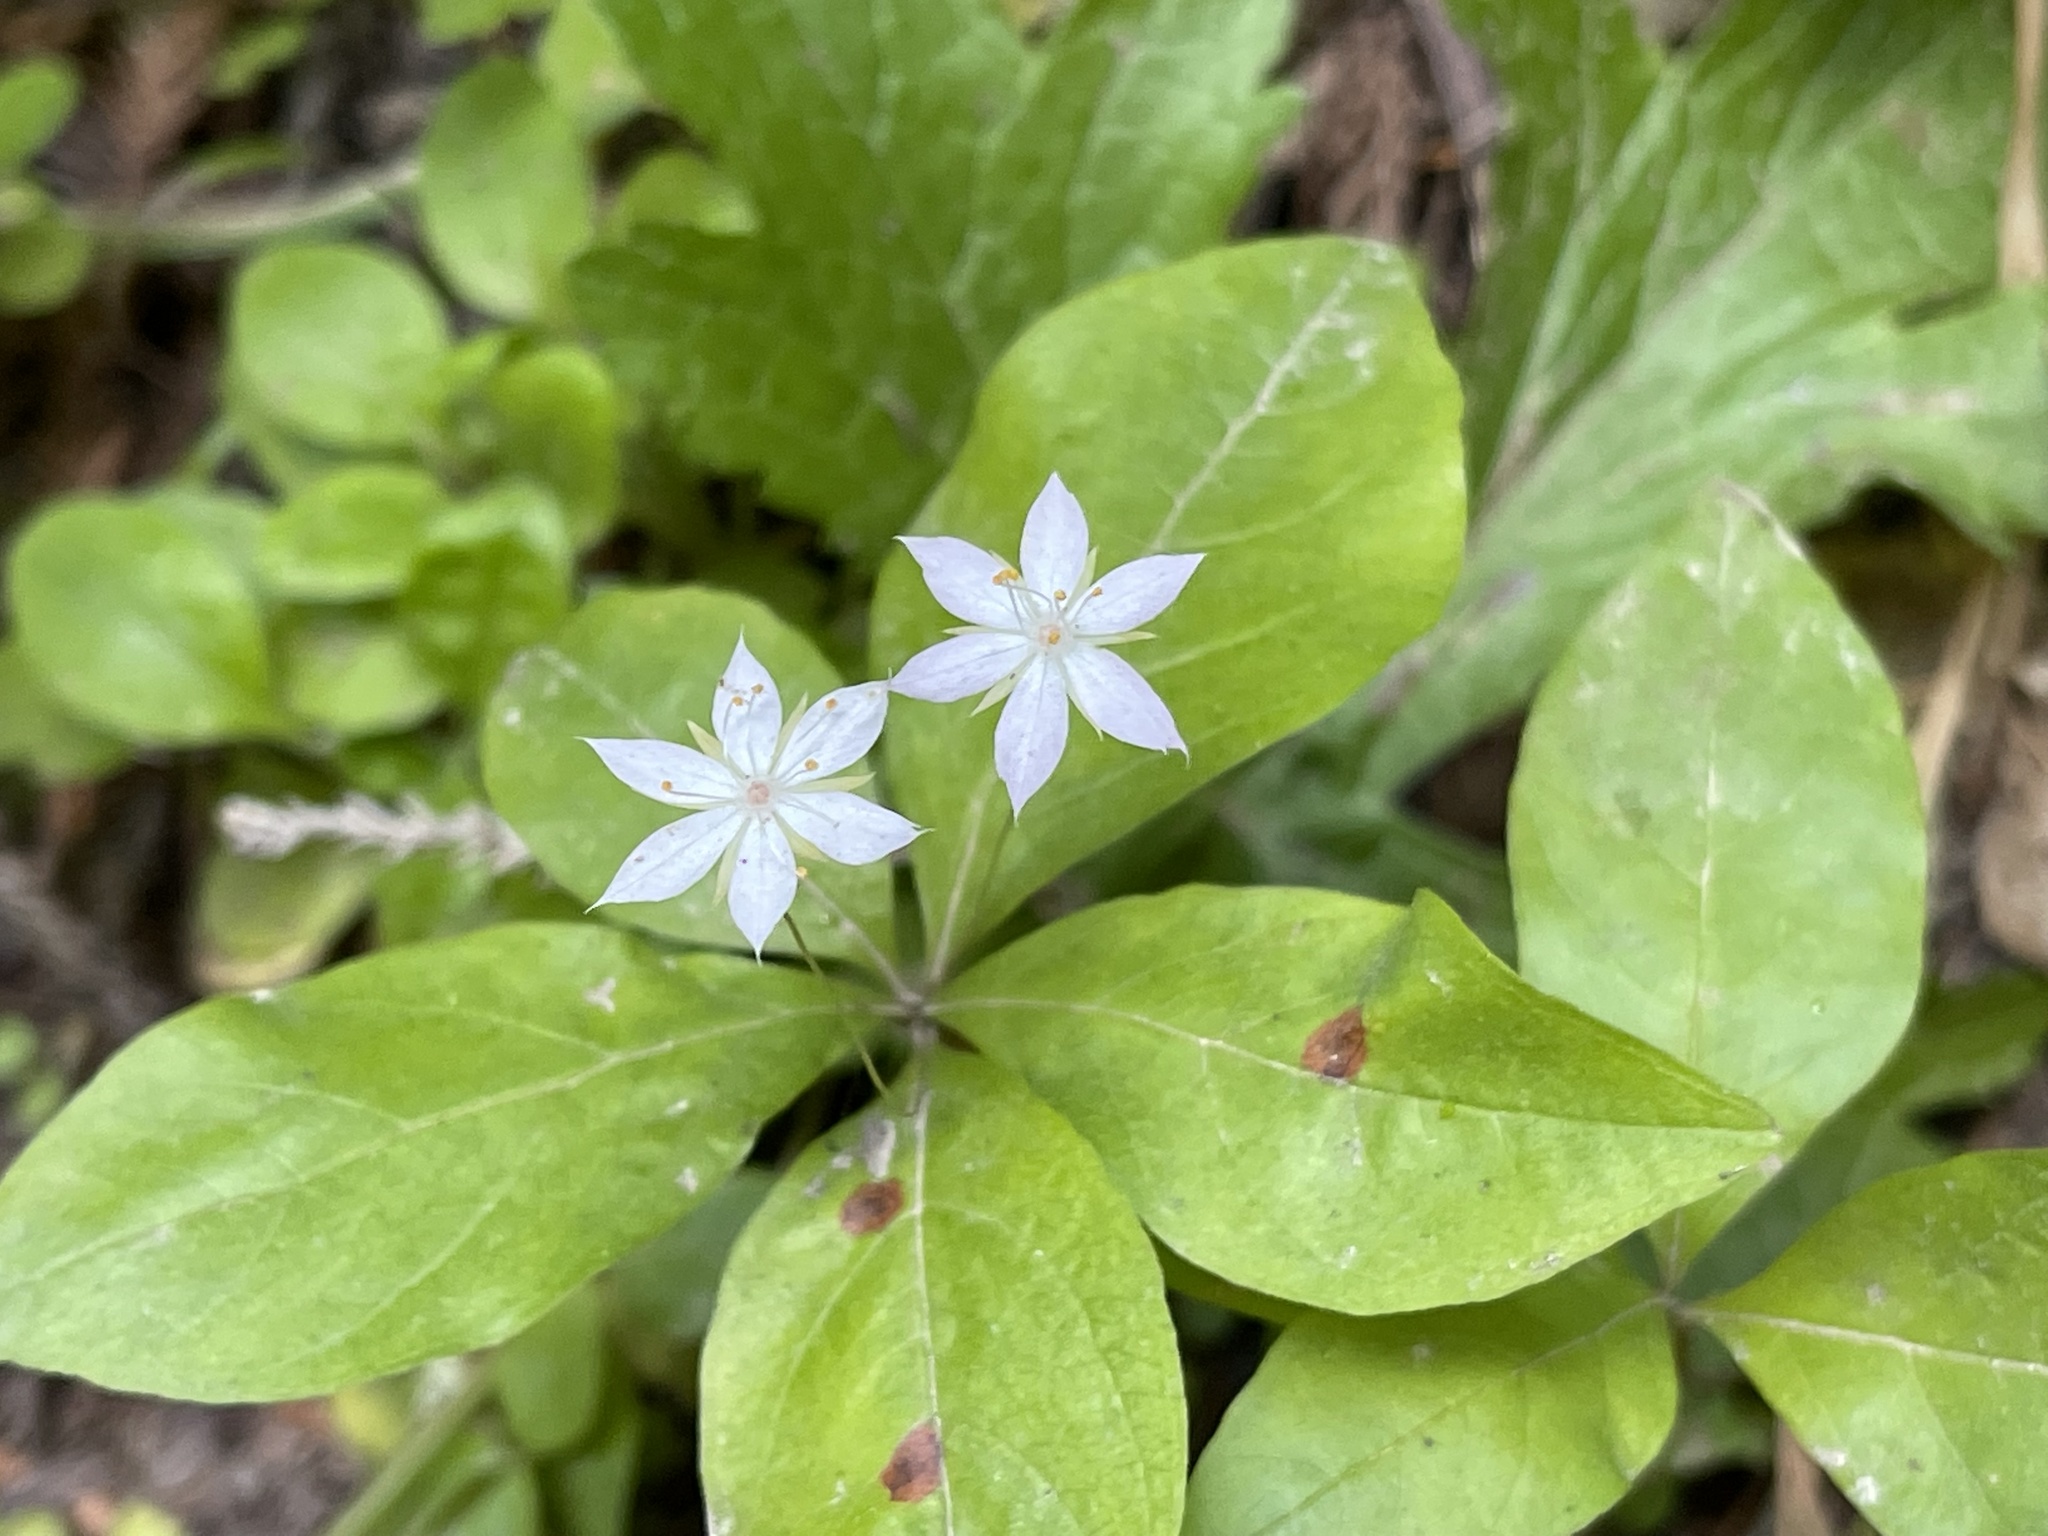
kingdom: Plantae
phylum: Tracheophyta
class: Magnoliopsida
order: Ericales
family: Primulaceae
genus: Lysimachia
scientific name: Lysimachia latifolia
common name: Pacific starflower
